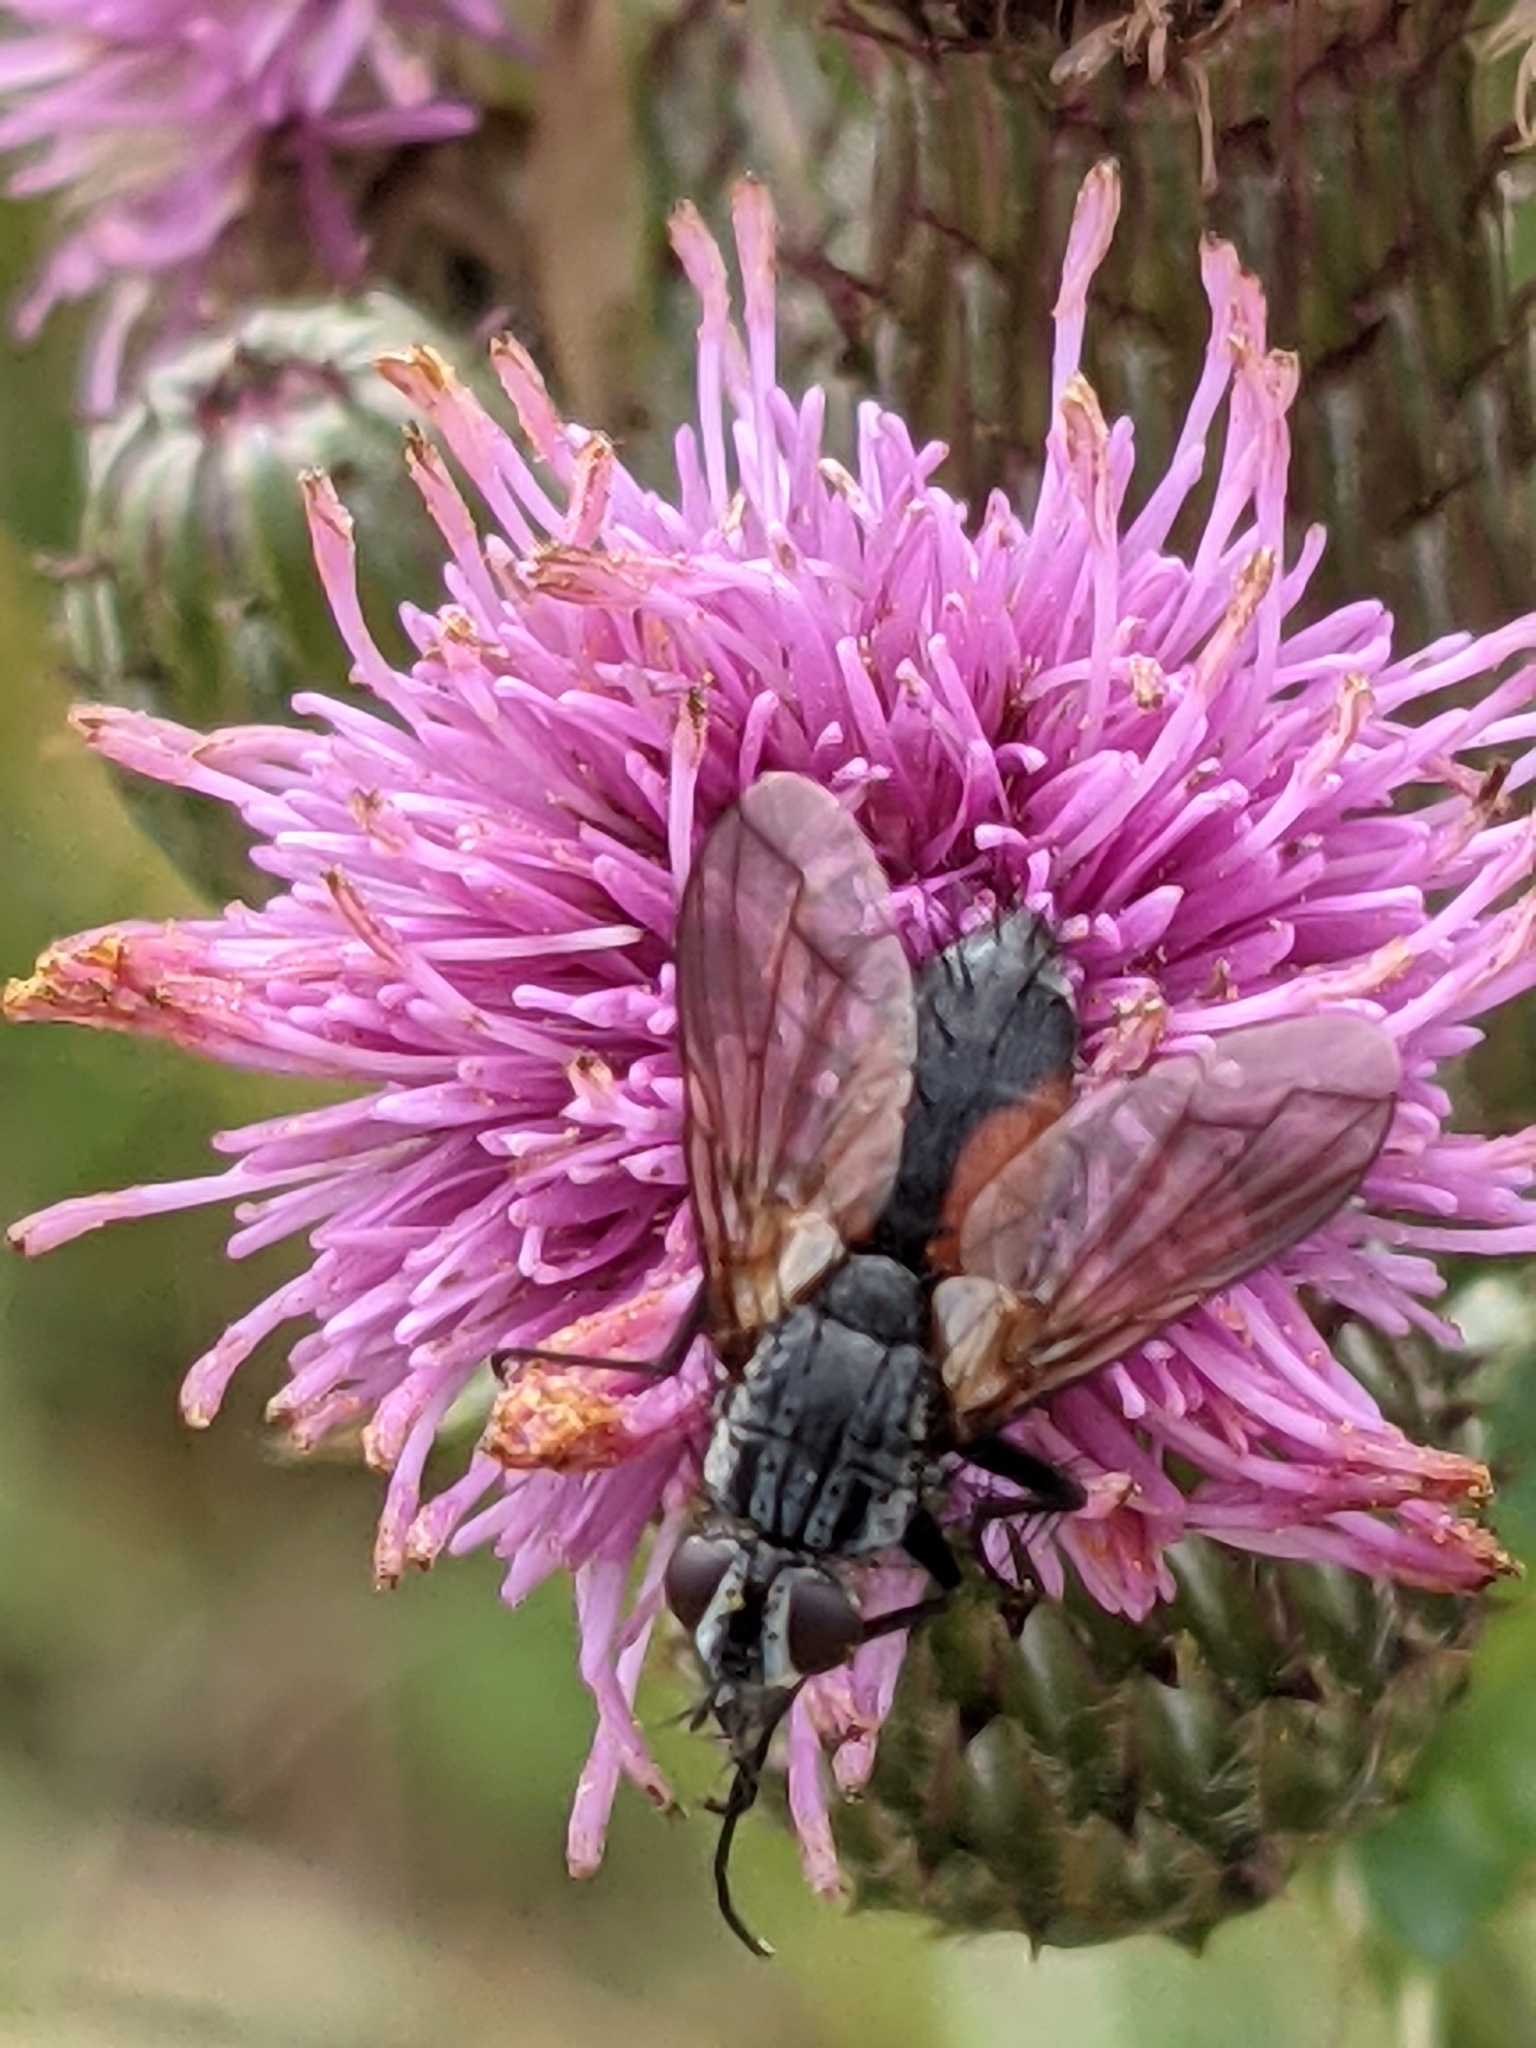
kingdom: Animalia
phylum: Arthropoda
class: Insecta
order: Diptera
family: Tachinidae
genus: Eriothrix
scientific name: Eriothrix rufomaculatus
